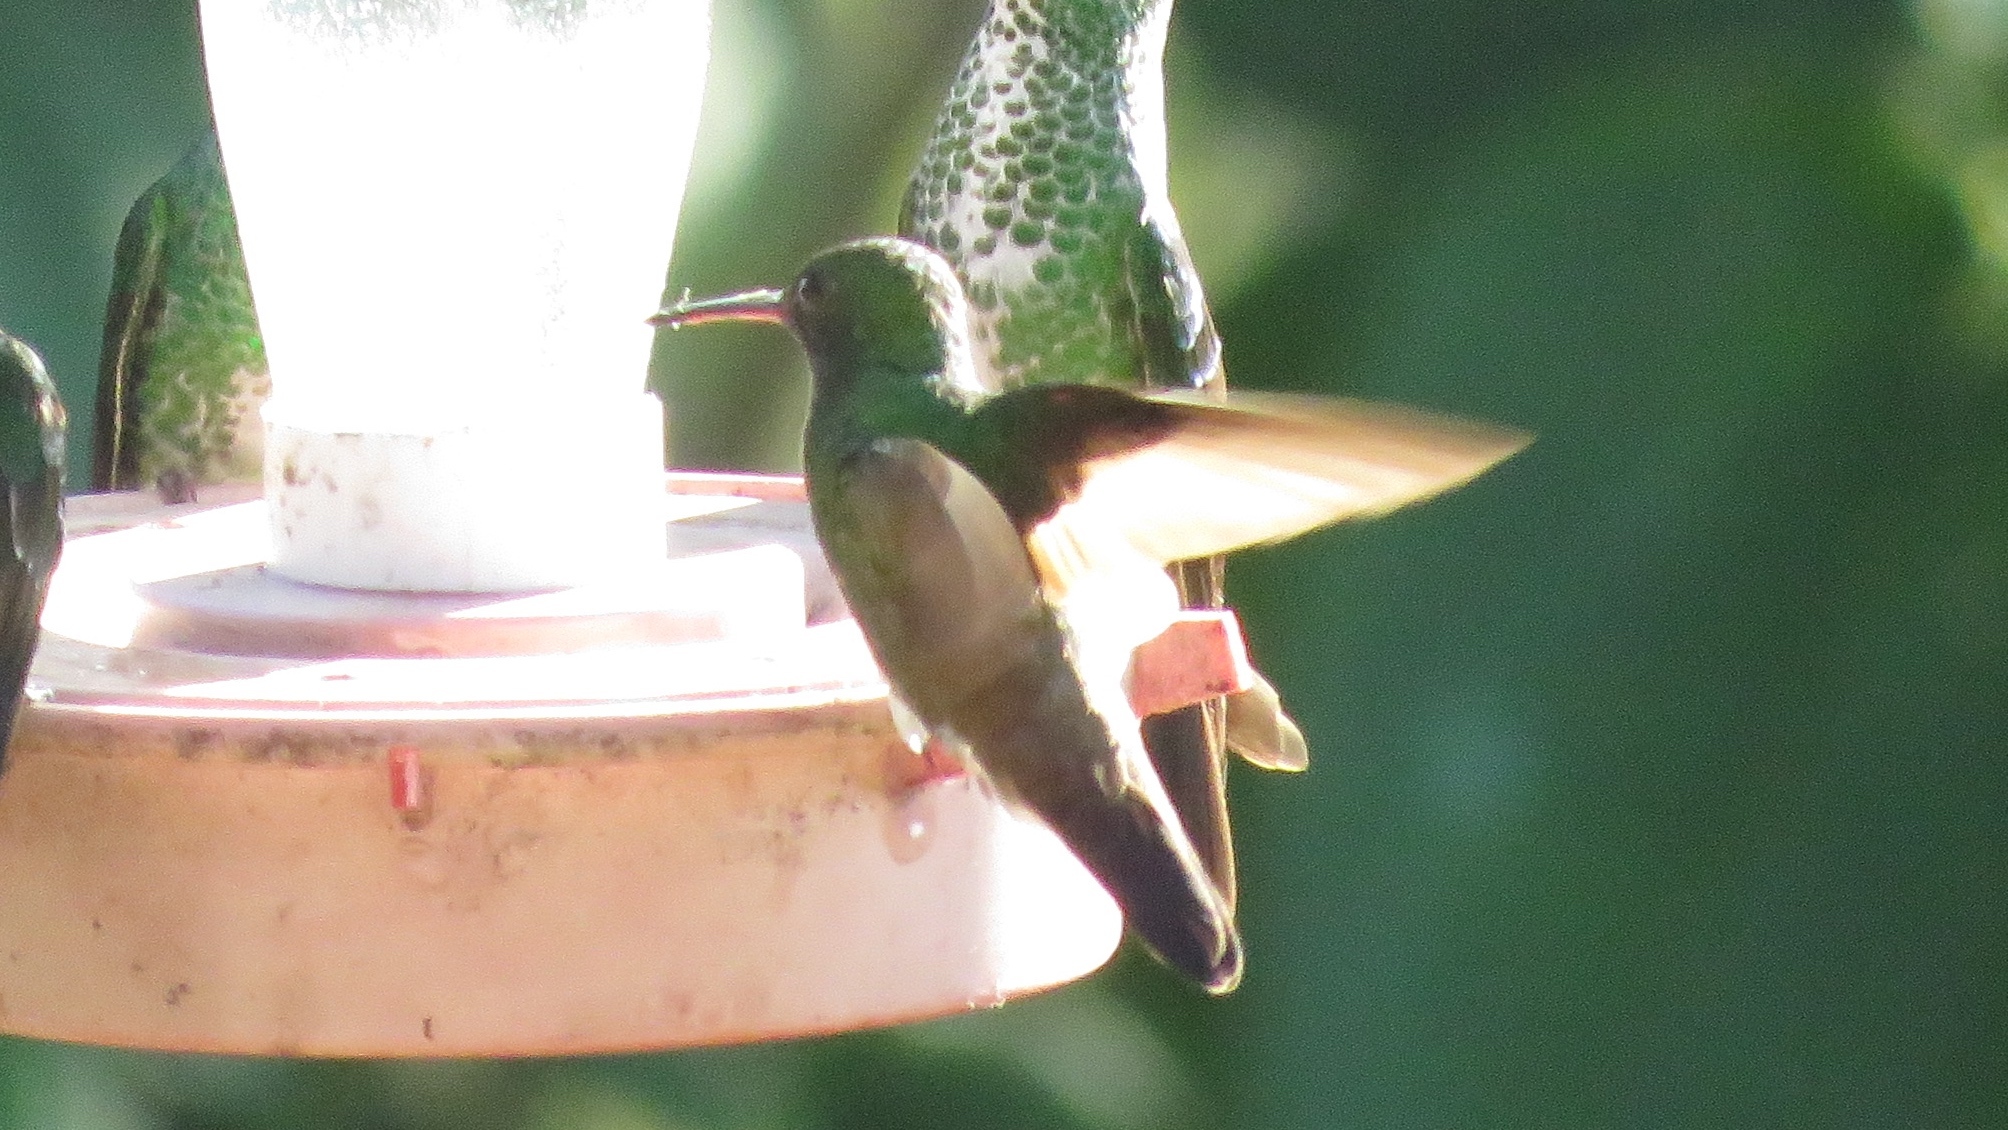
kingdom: Animalia
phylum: Chordata
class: Aves
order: Apodiformes
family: Trochilidae
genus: Chlorestes
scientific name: Chlorestes eliciae
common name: Blue-throated sapphire
